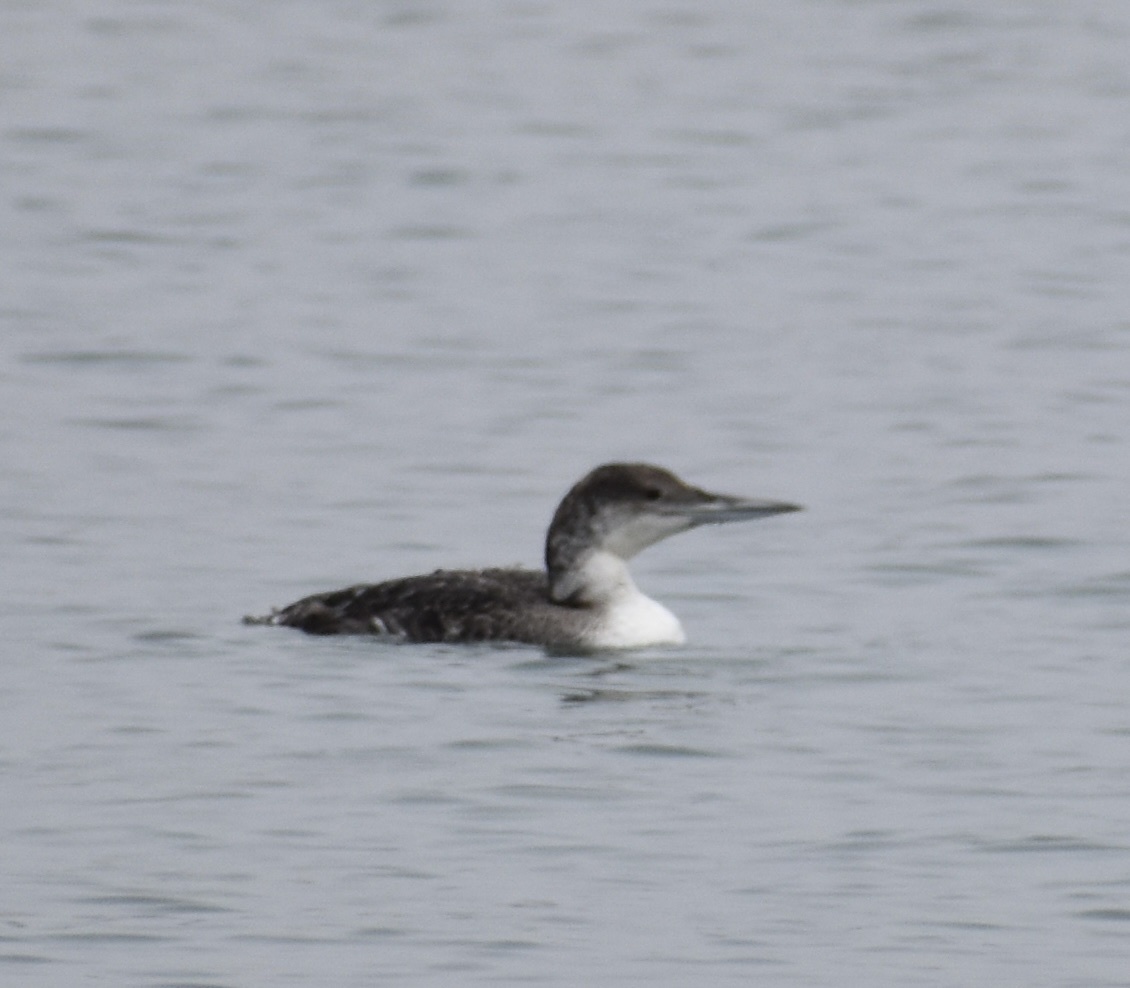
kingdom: Animalia
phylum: Chordata
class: Aves
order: Gaviiformes
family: Gaviidae
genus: Gavia
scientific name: Gavia immer
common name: Common loon
